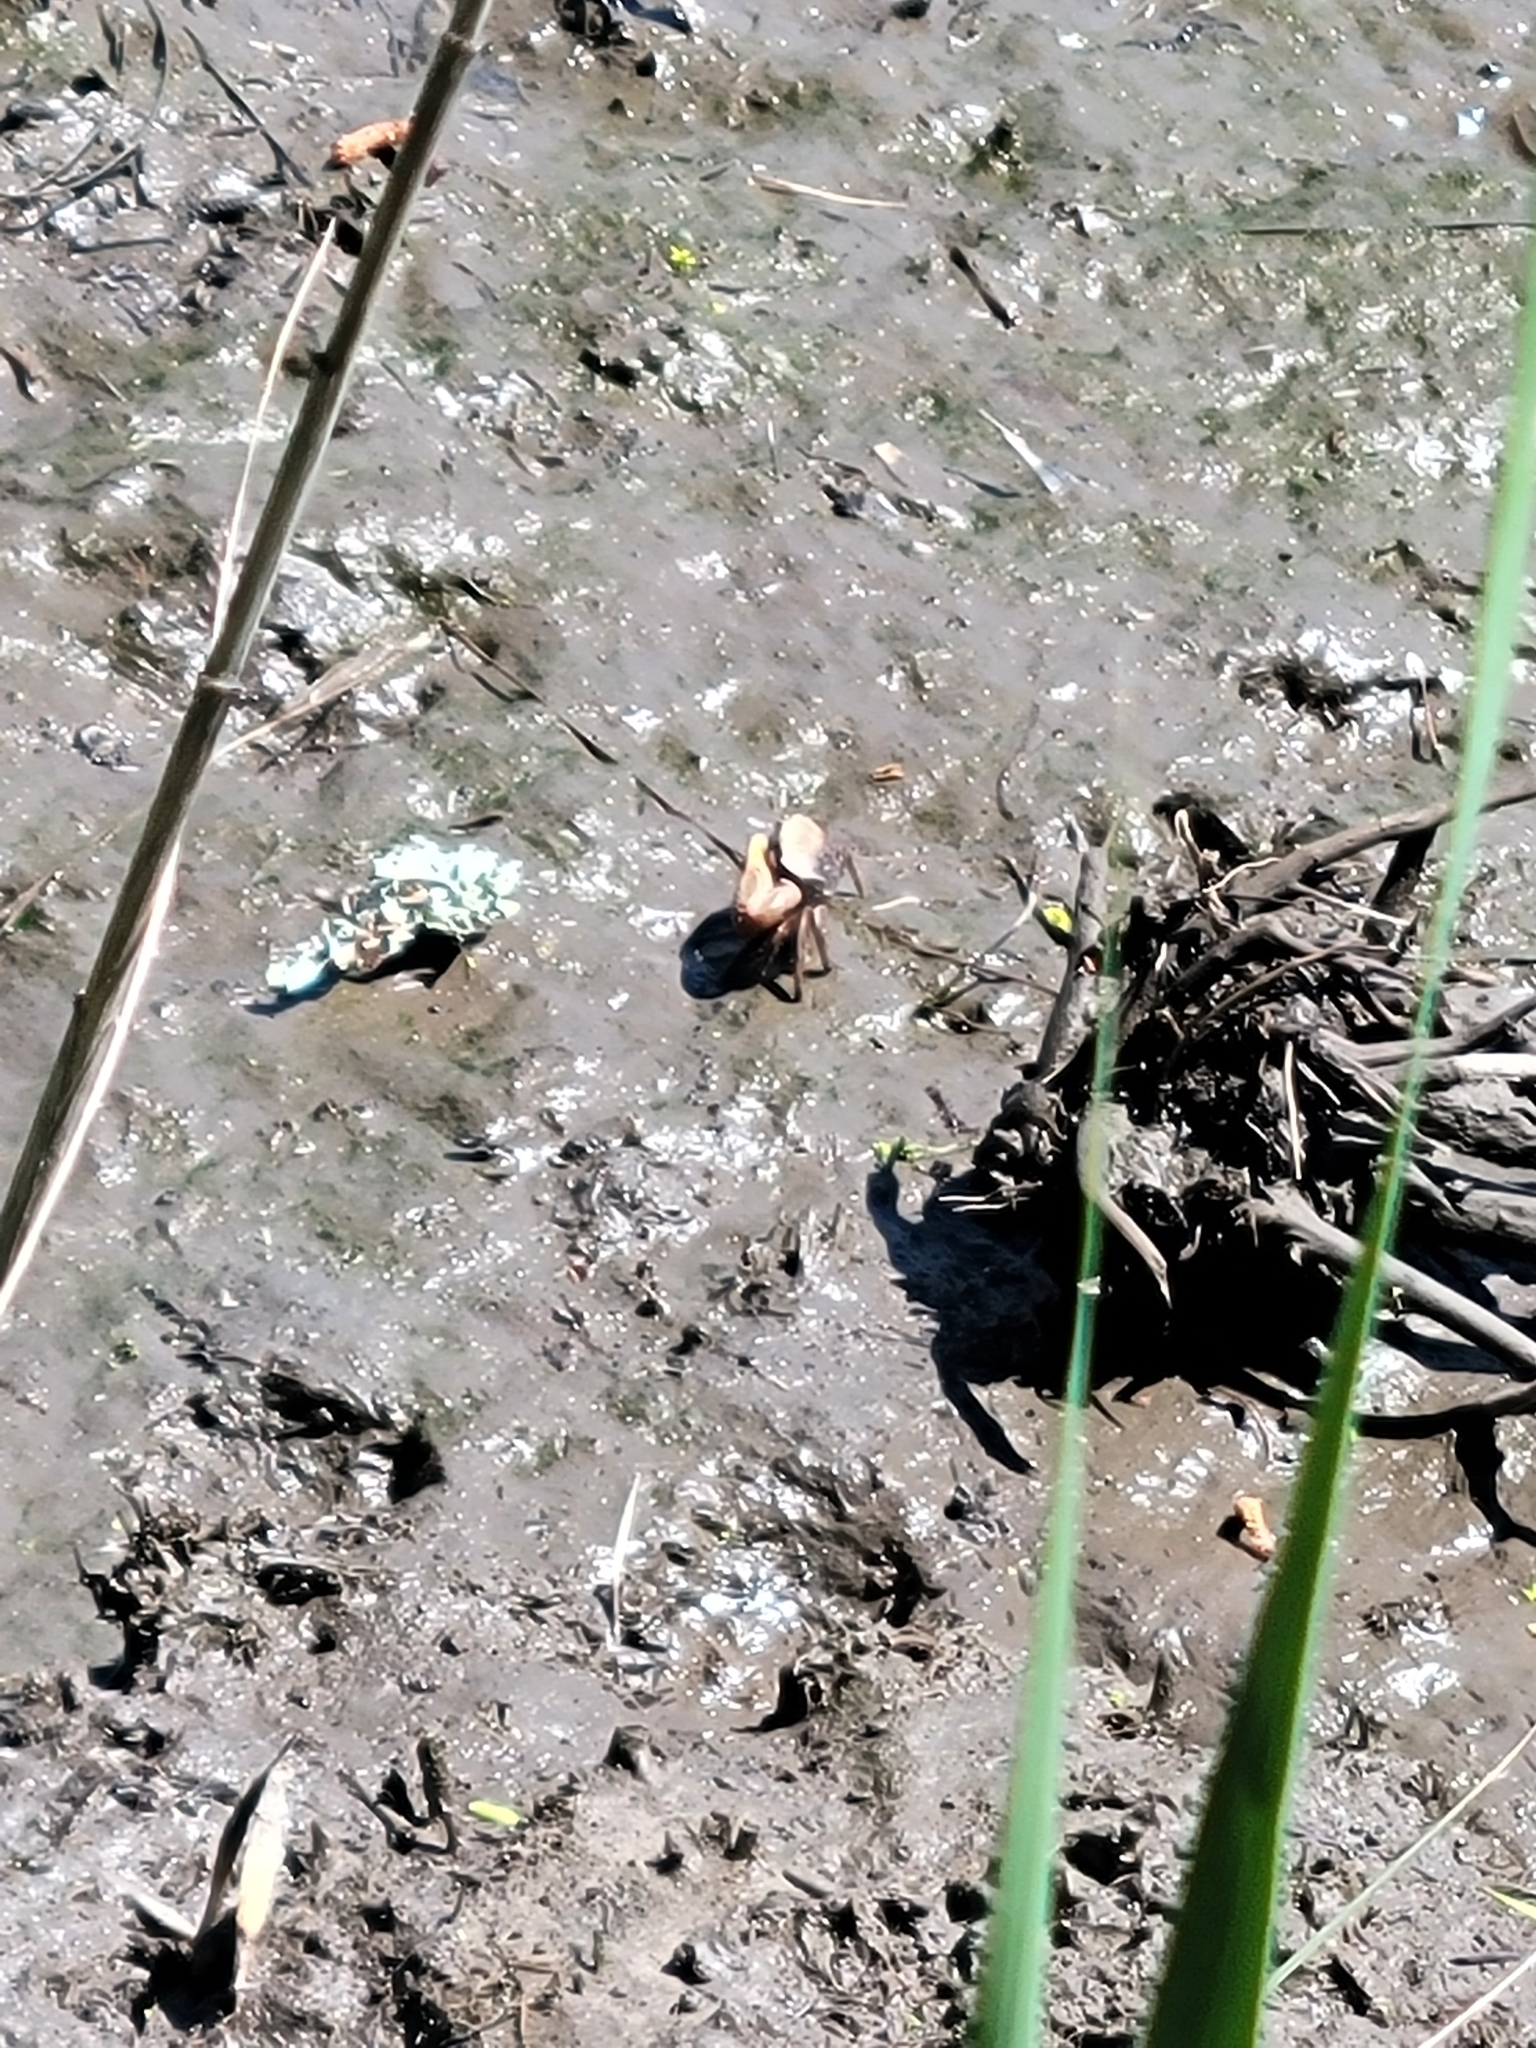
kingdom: Animalia
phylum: Arthropoda
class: Malacostraca
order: Decapoda
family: Ocypodidae
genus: Minuca
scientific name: Minuca minax
